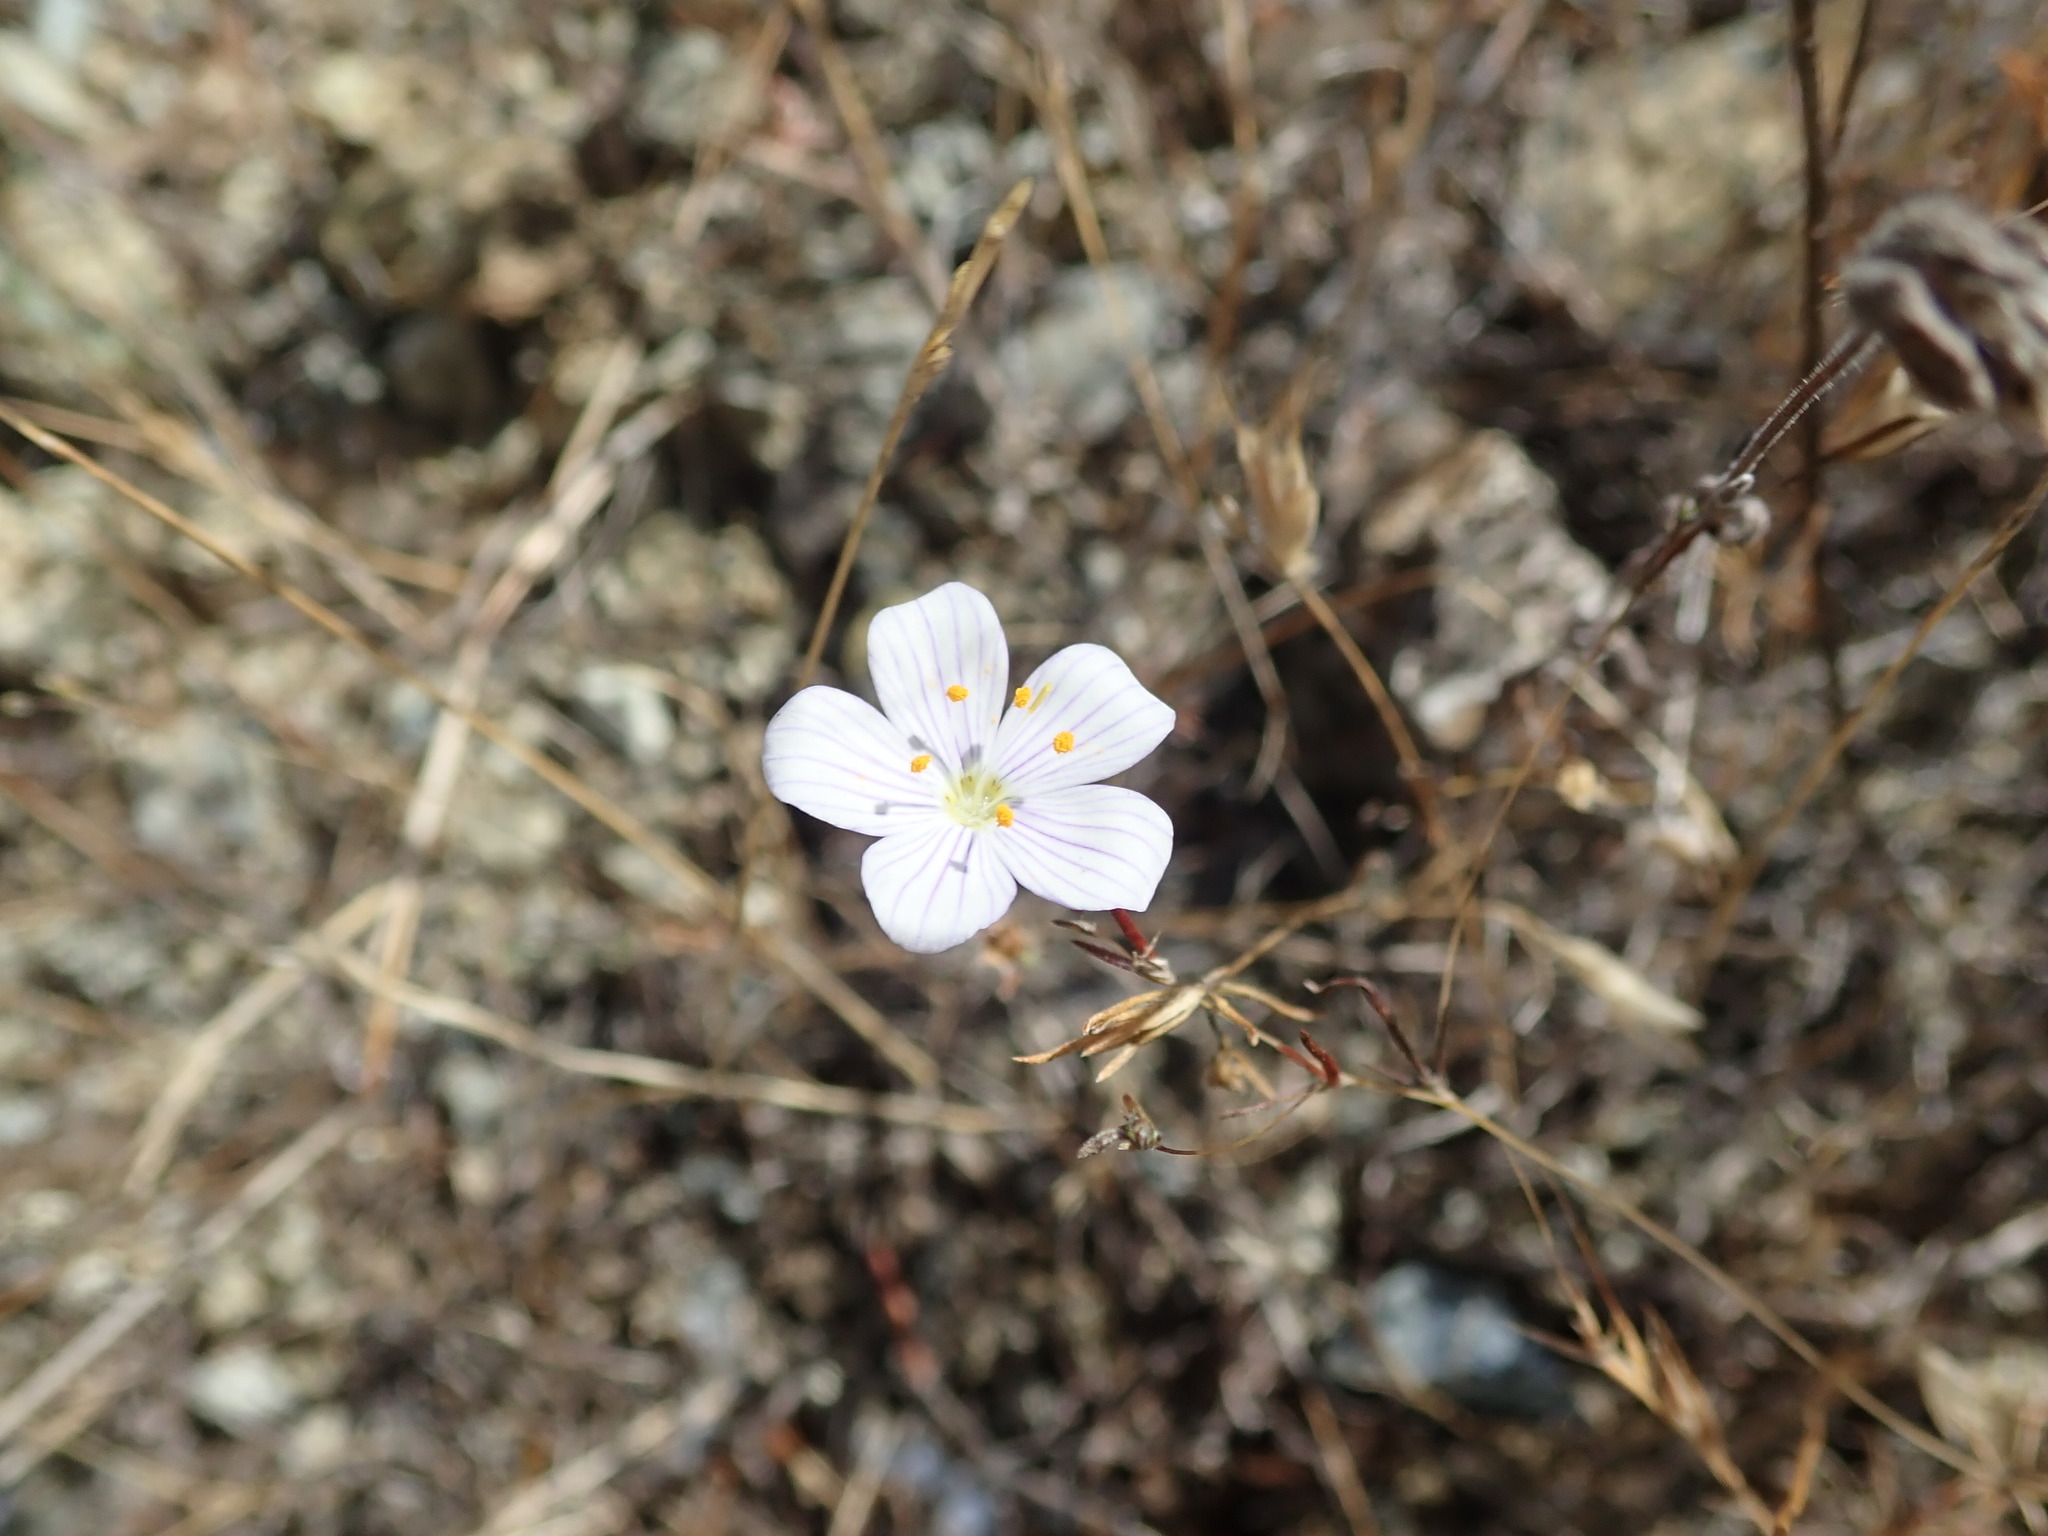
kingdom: Plantae
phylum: Tracheophyta
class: Magnoliopsida
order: Ericales
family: Polemoniaceae
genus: Leptosiphon
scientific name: Leptosiphon liniflorus
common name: Narrowflower flaxflower
